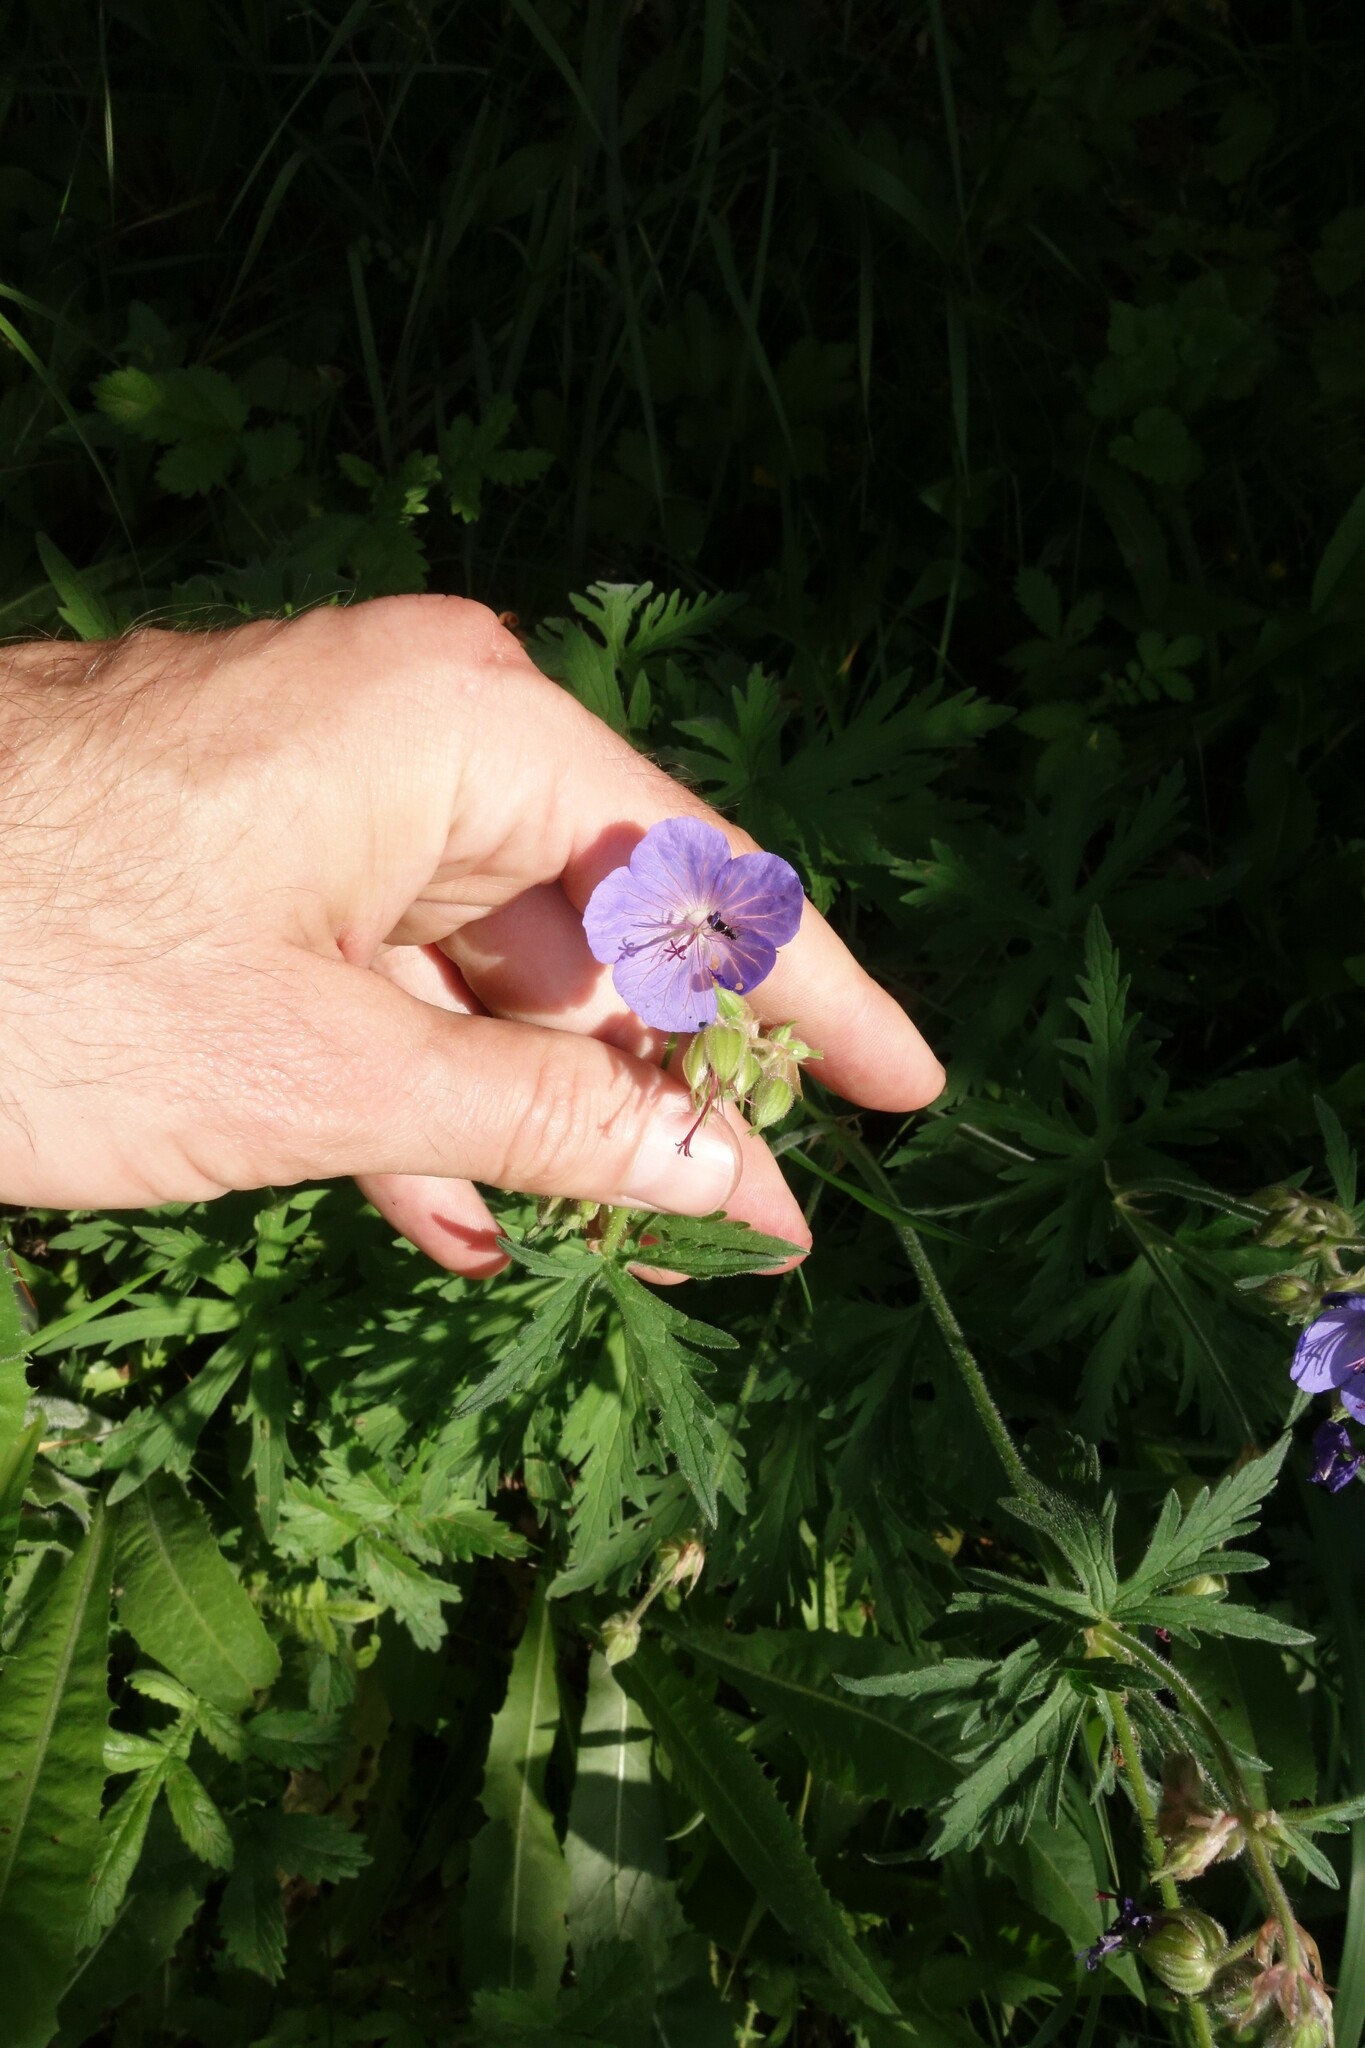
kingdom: Plantae
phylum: Tracheophyta
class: Magnoliopsida
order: Geraniales
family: Geraniaceae
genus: Geranium
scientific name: Geranium pratense
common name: Meadow crane's-bill
